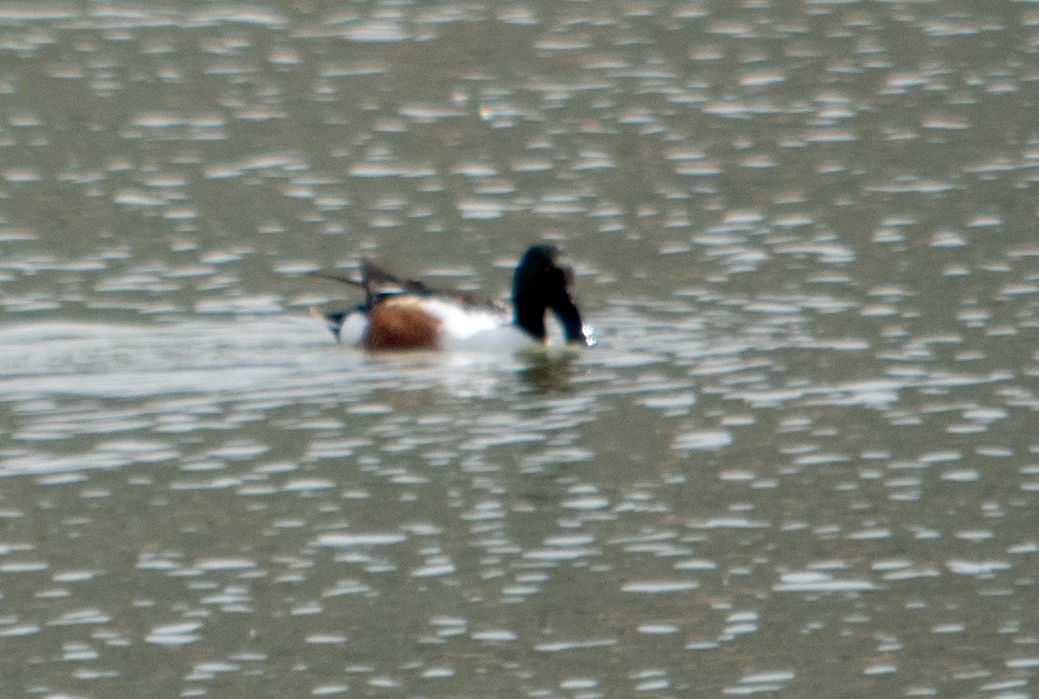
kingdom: Animalia
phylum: Chordata
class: Aves
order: Anseriformes
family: Anatidae
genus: Spatula
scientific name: Spatula clypeata
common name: Northern shoveler
